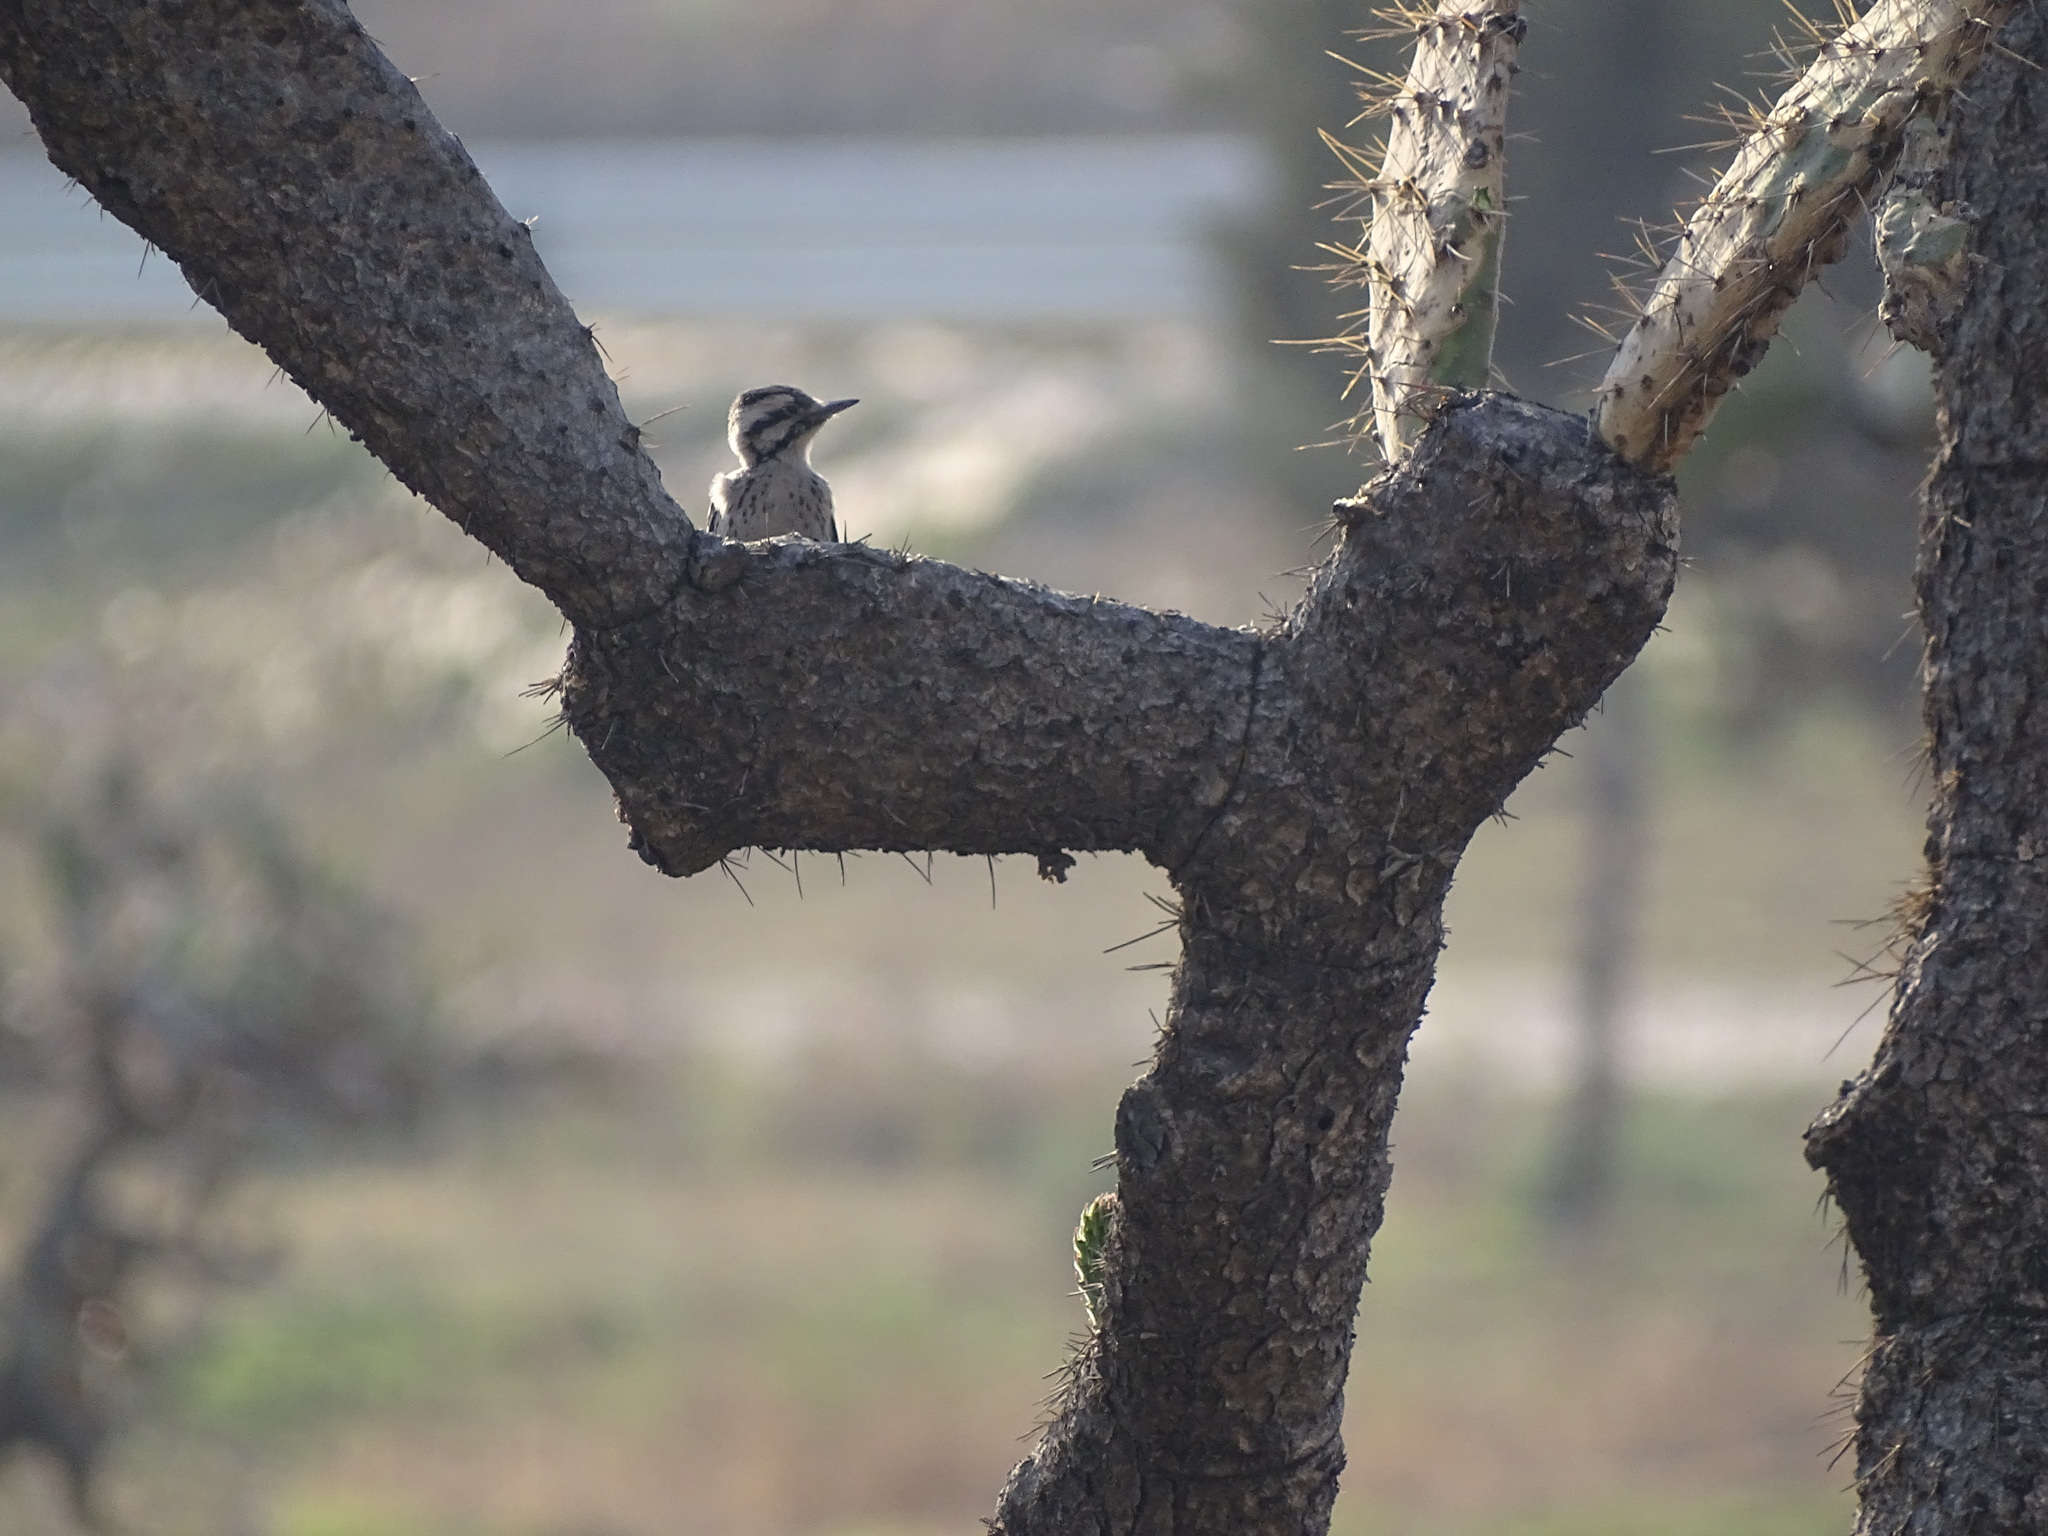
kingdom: Animalia
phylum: Chordata
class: Aves
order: Piciformes
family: Picidae
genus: Dryobates
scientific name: Dryobates scalaris
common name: Ladder-backed woodpecker
